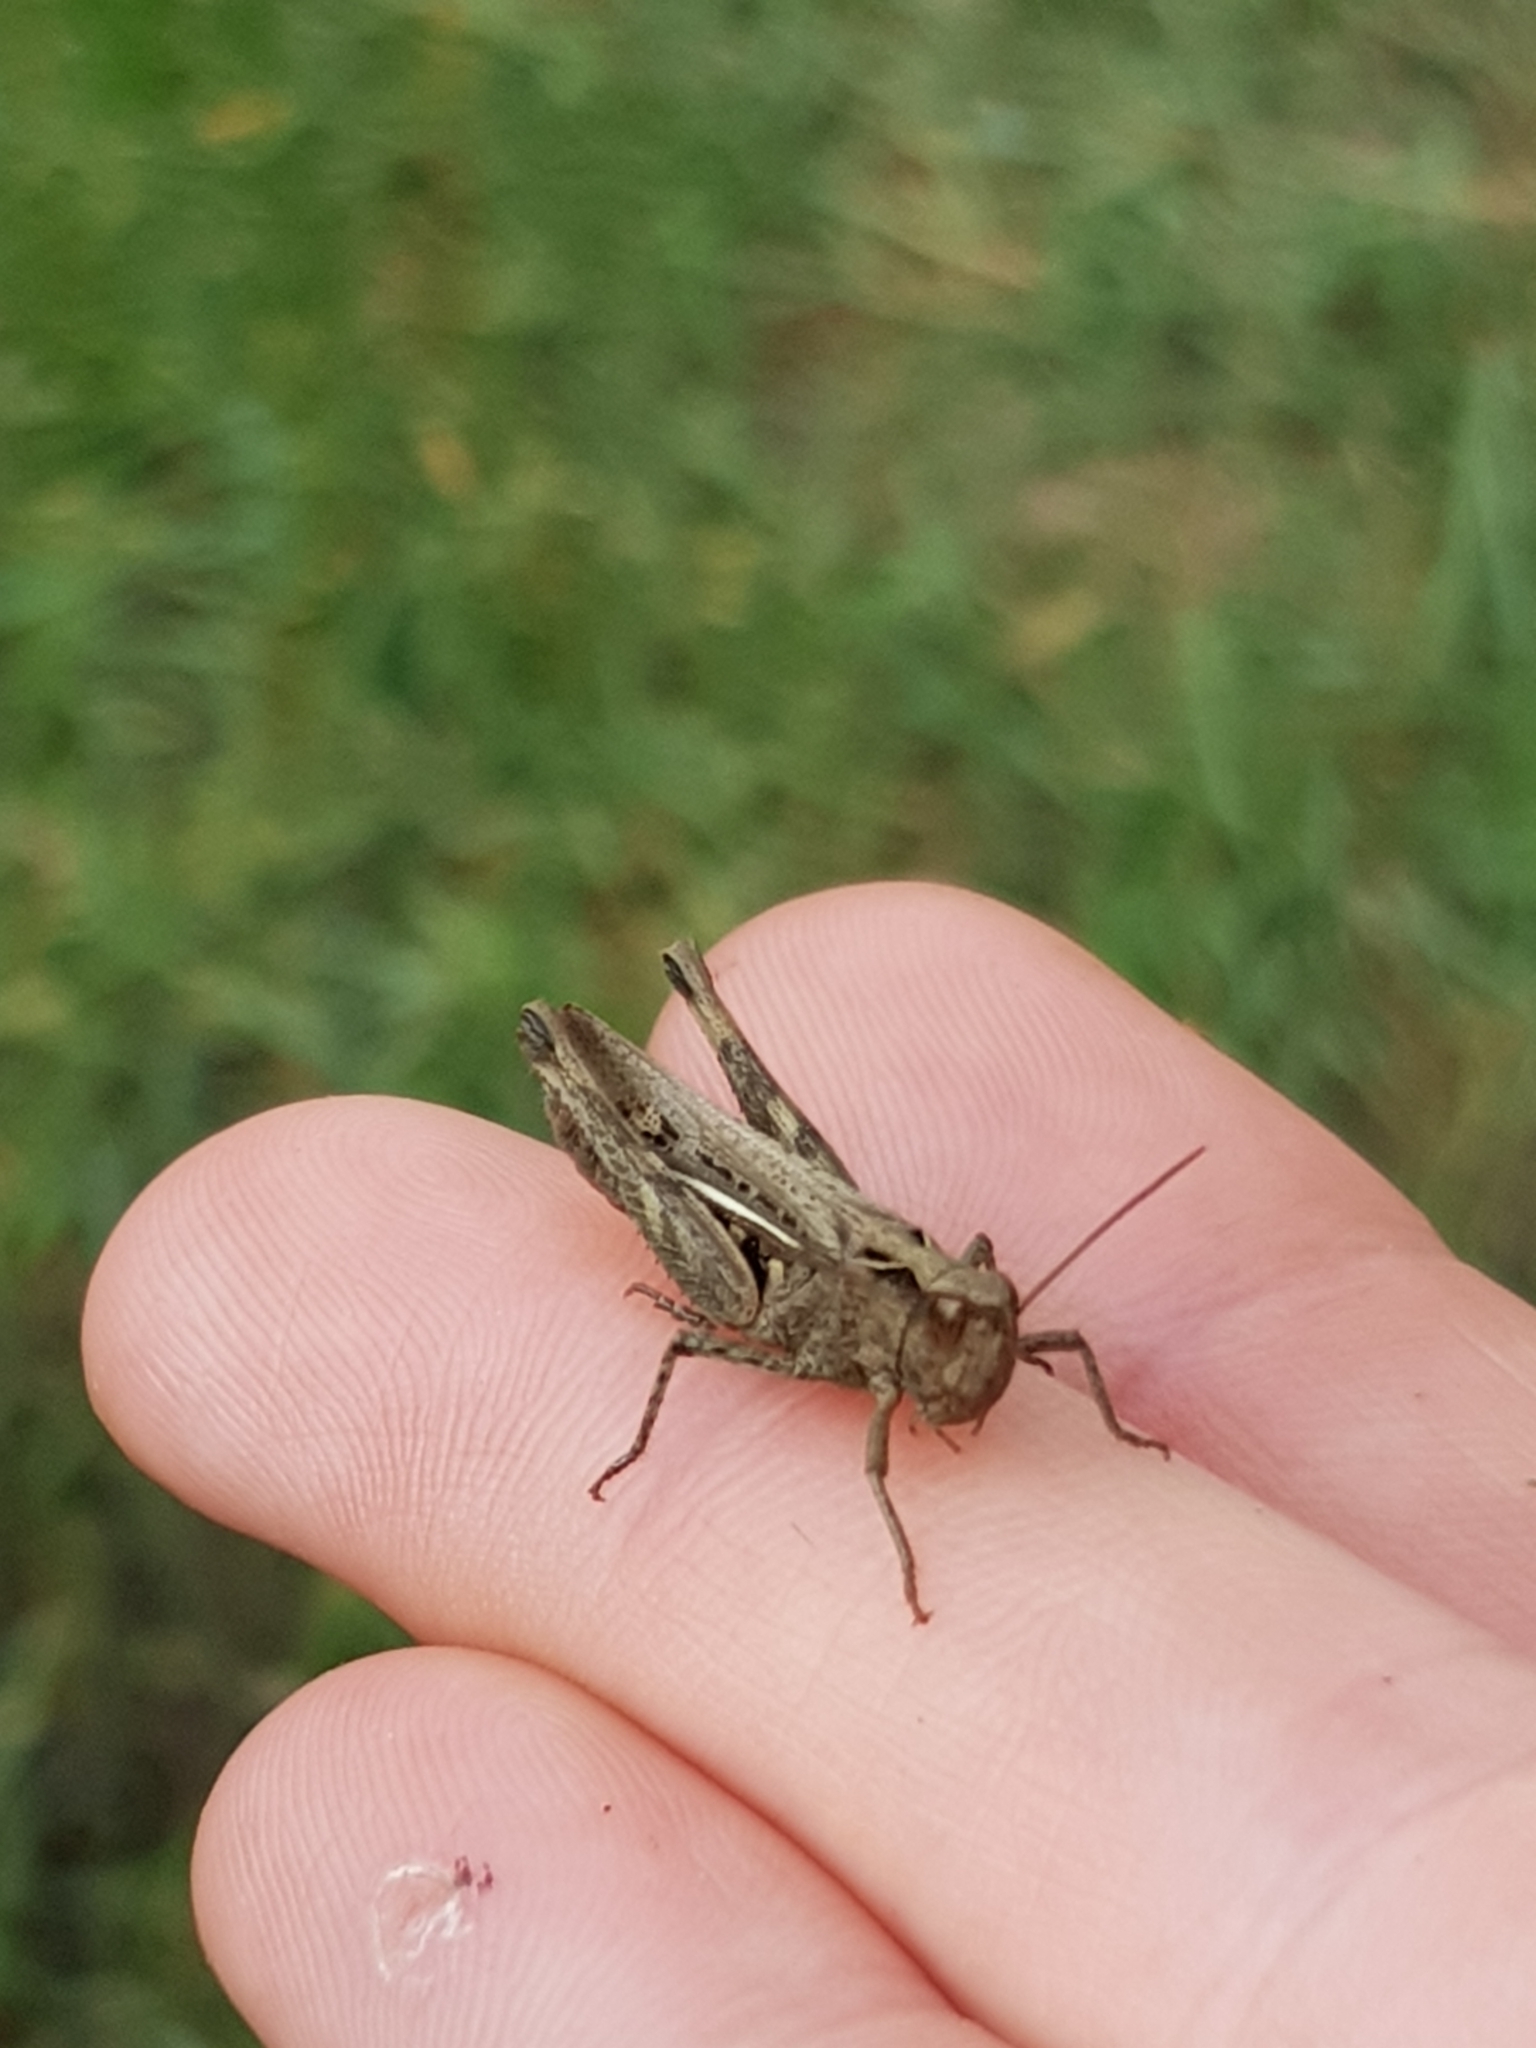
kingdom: Animalia
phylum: Arthropoda
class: Insecta
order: Orthoptera
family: Acrididae
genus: Glyptobothrus
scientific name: Glyptobothrus
